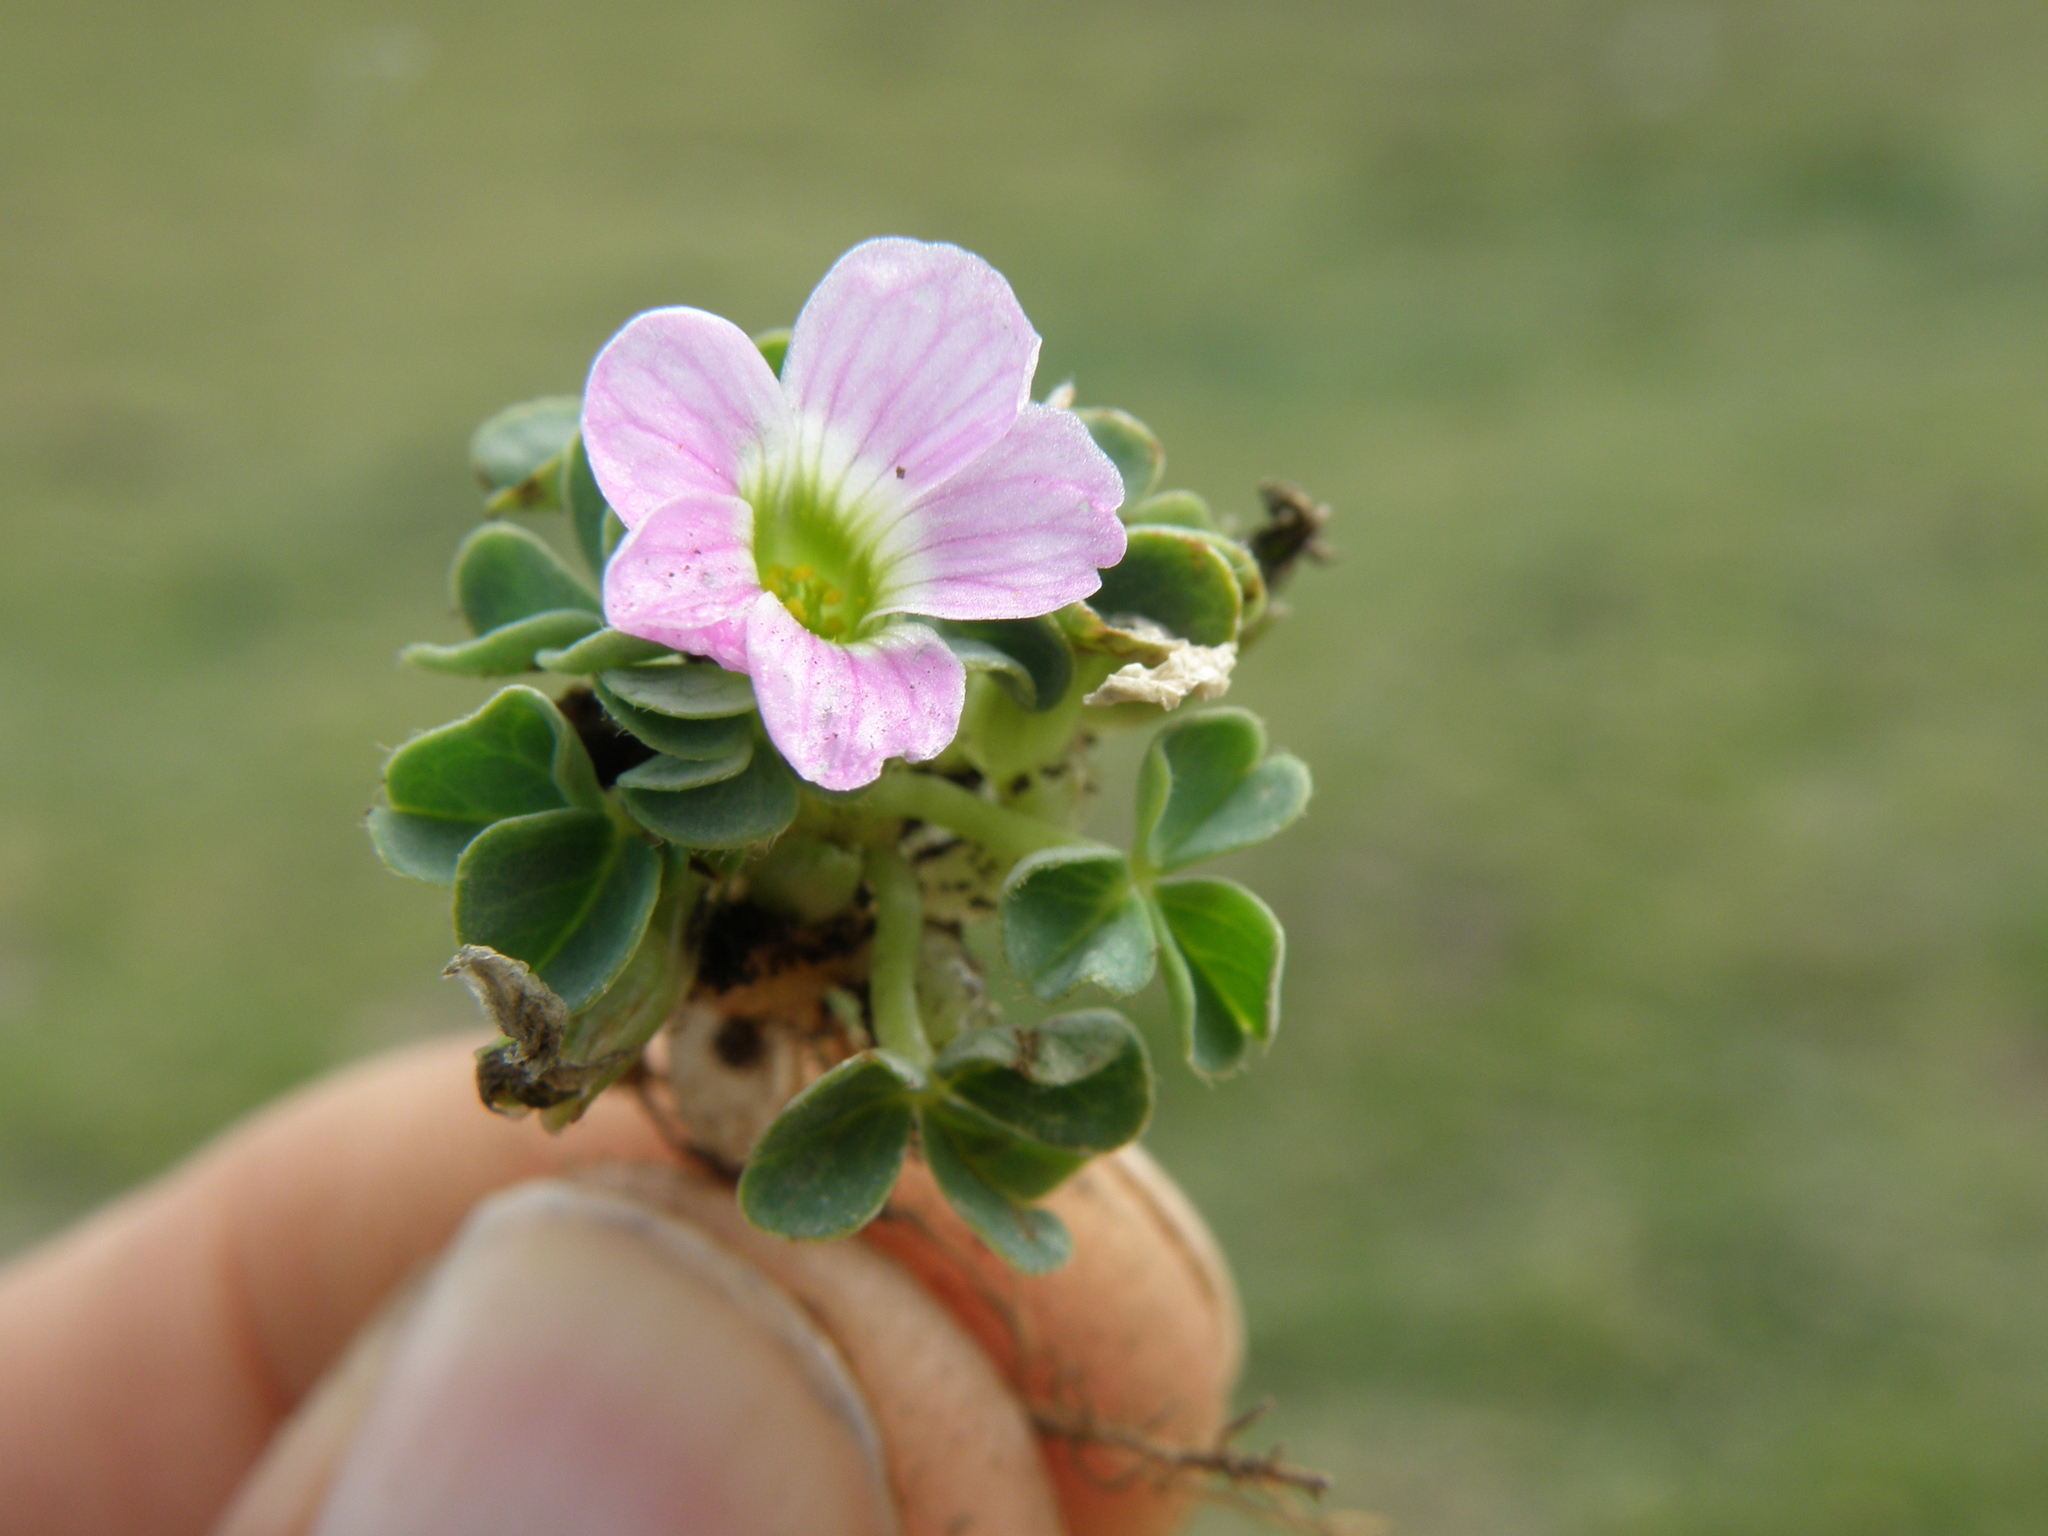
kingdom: Plantae
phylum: Tracheophyta
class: Magnoliopsida
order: Oxalidales
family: Oxalidaceae
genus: Oxalis
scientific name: Oxalis minima
